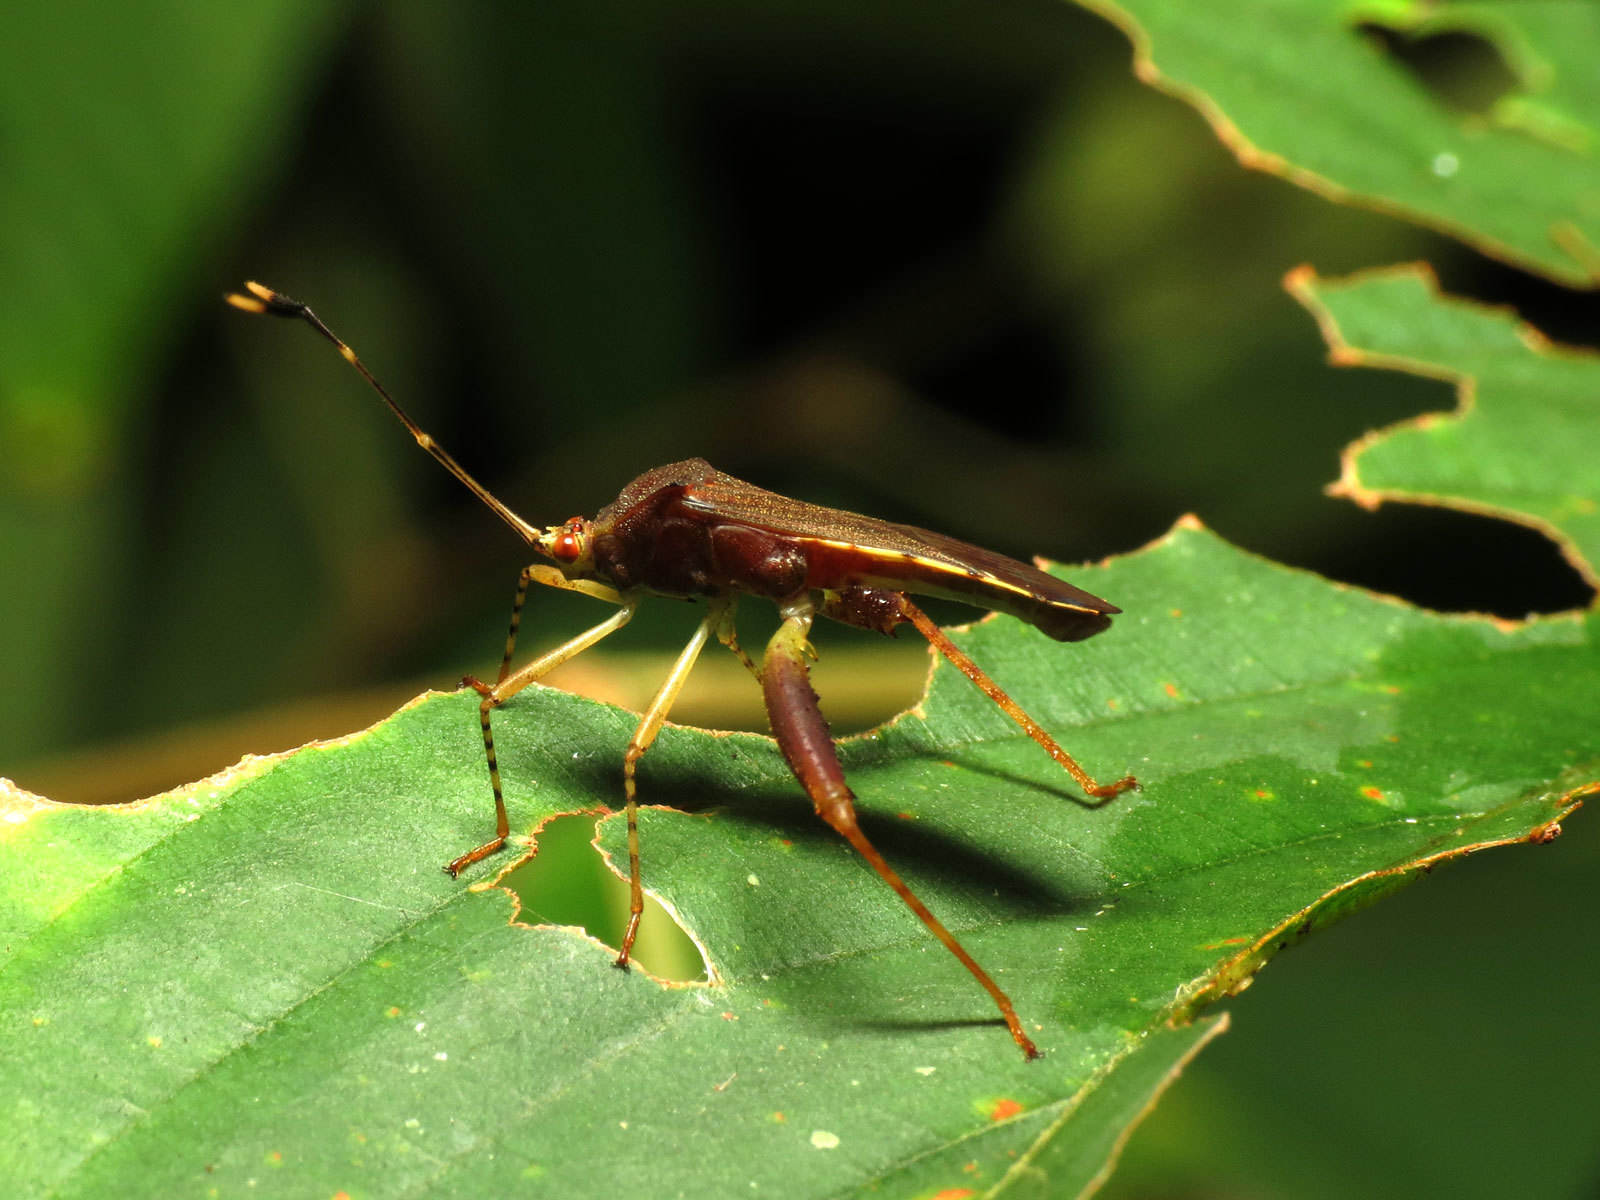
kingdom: Animalia
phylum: Arthropoda
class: Insecta
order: Hemiptera
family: Coreidae
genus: Zoreva
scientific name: Zoreva lobulata
